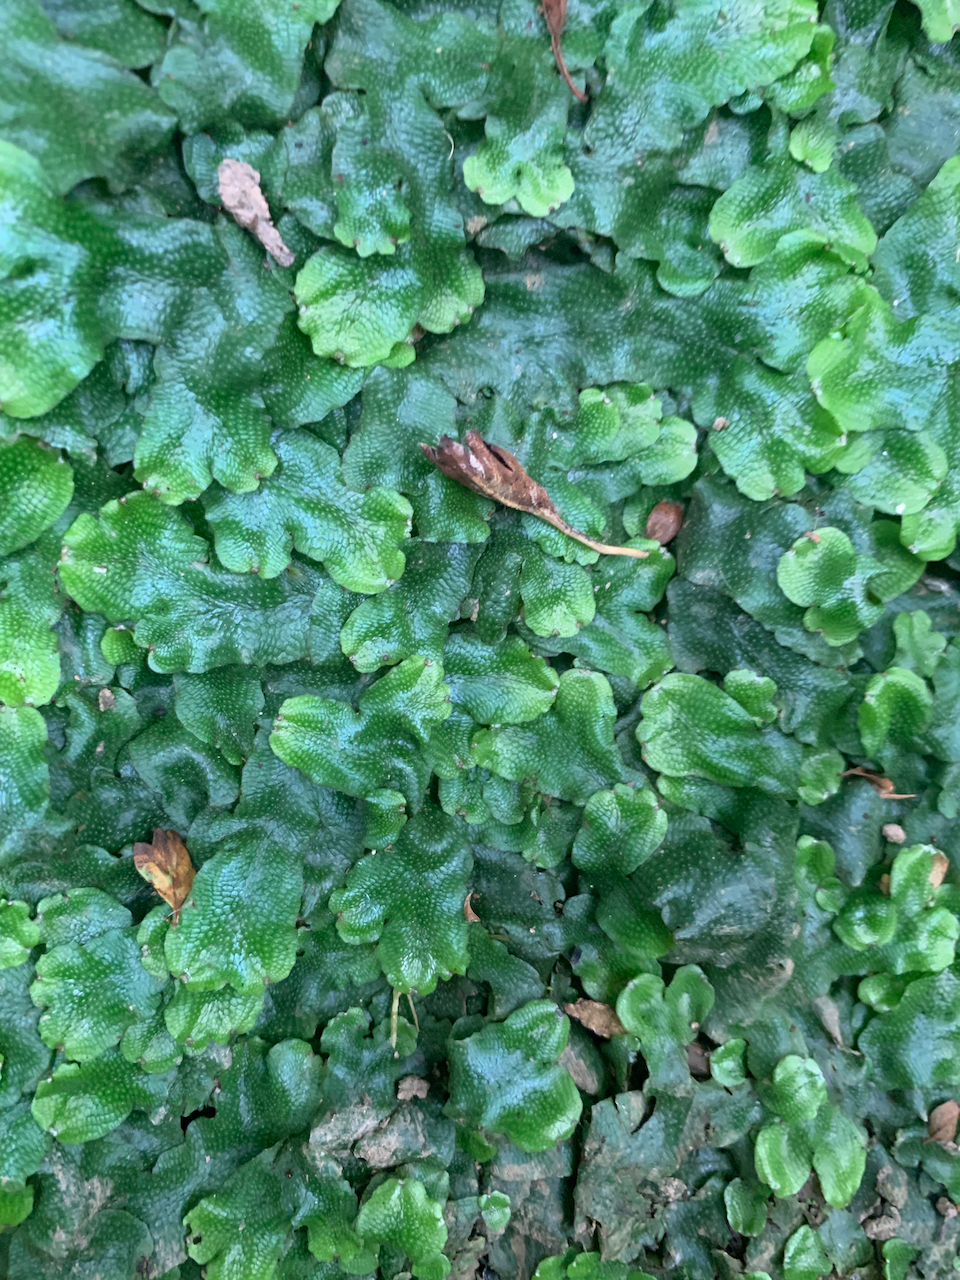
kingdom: Plantae
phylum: Marchantiophyta
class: Marchantiopsida
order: Marchantiales
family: Conocephalaceae
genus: Conocephalum
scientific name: Conocephalum conicum
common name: Great scented liverwort
